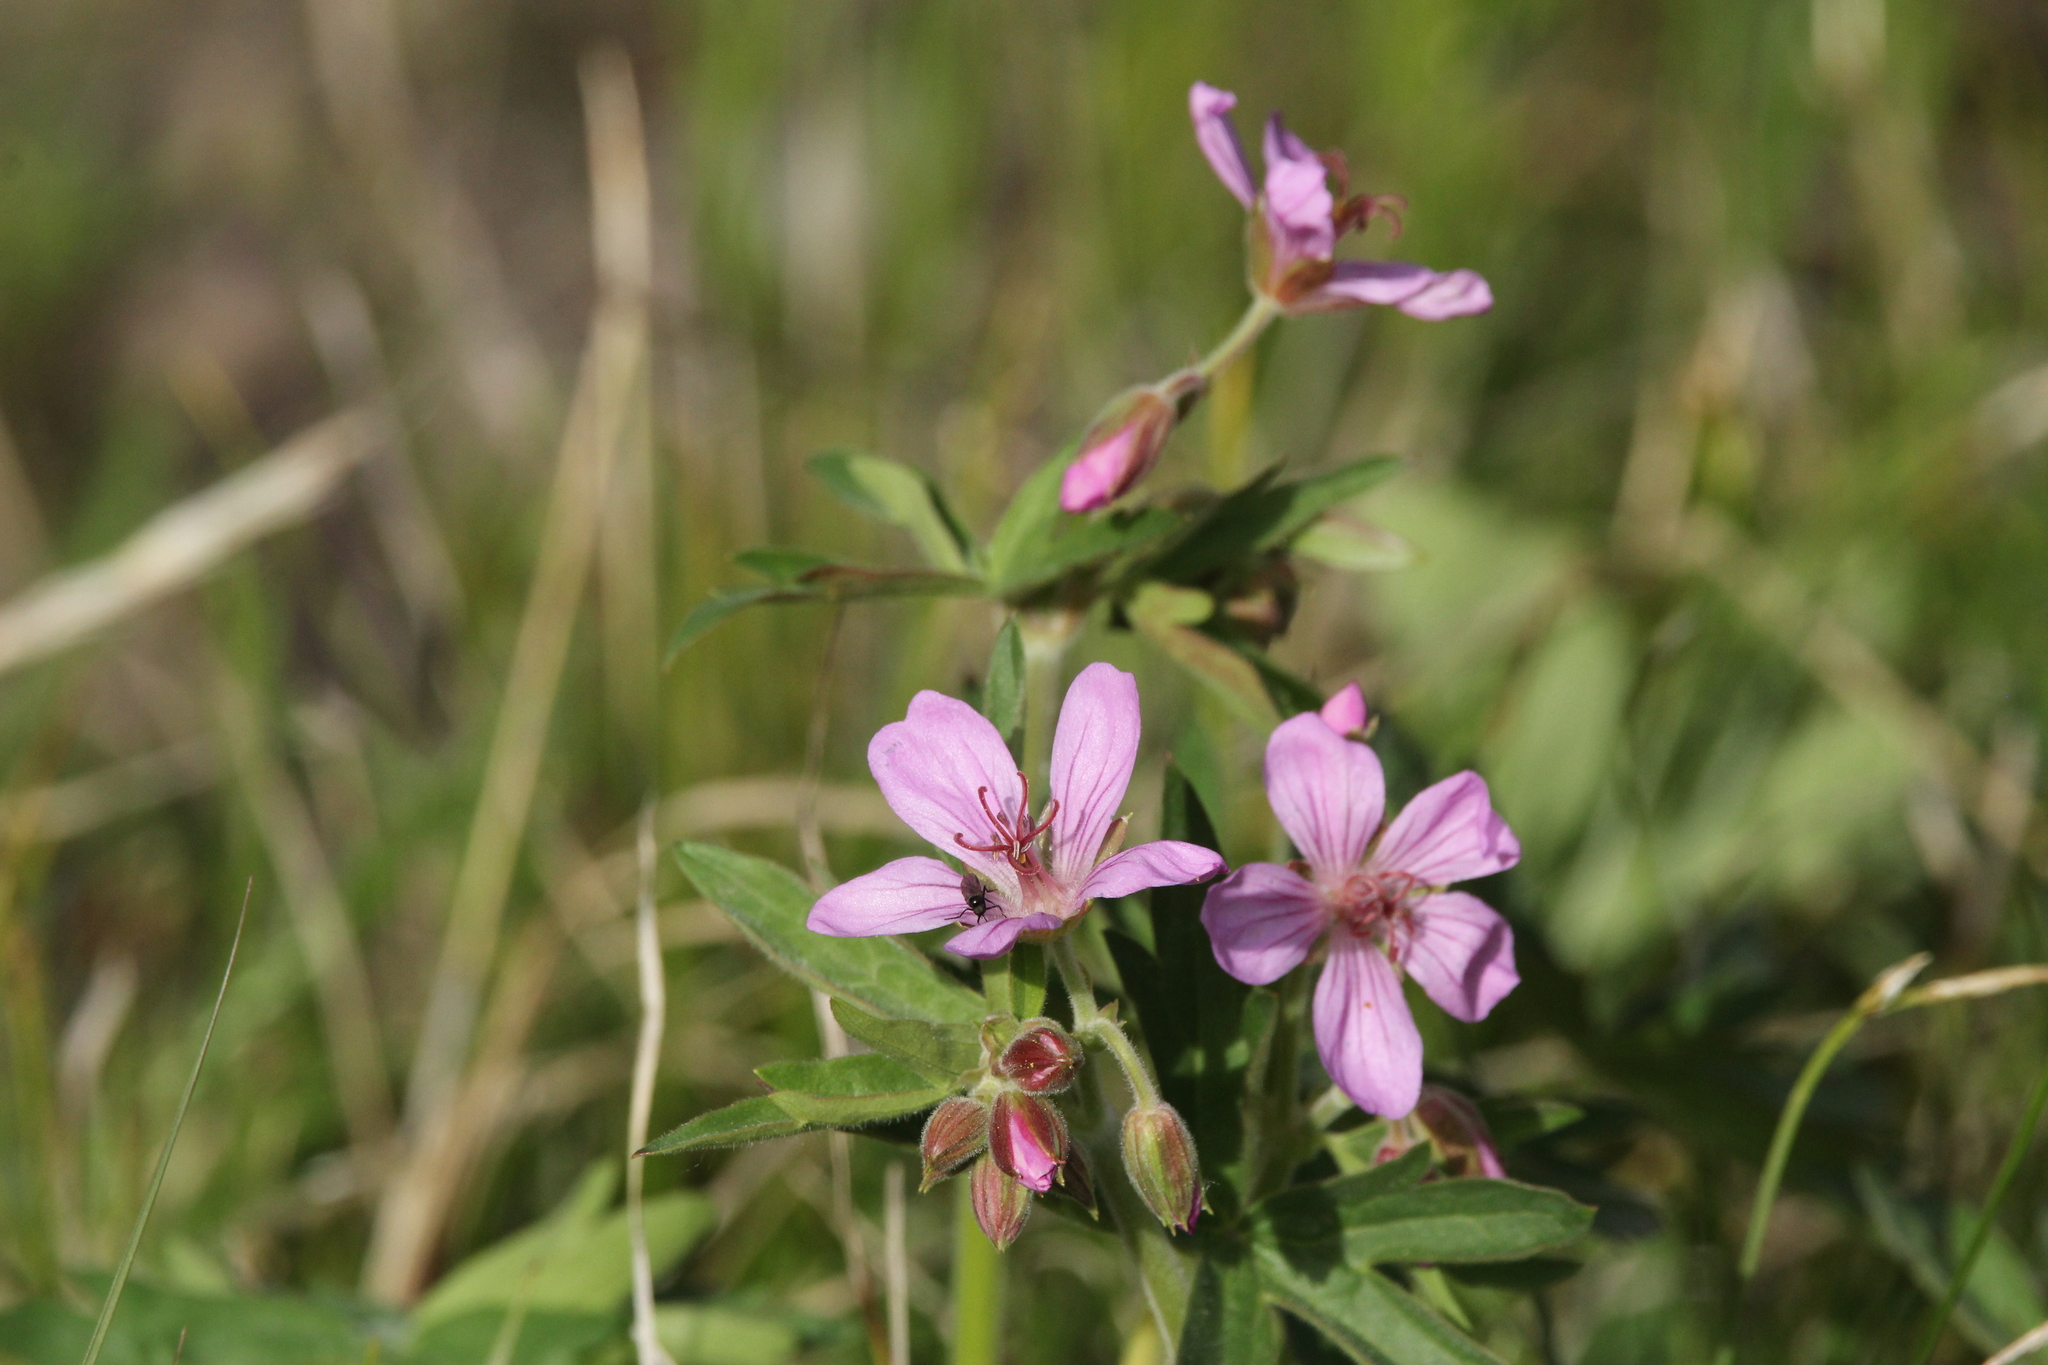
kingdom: Plantae
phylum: Tracheophyta
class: Magnoliopsida
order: Geraniales
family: Geraniaceae
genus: Geranium
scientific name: Geranium viscosissimum
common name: Purple geranium
